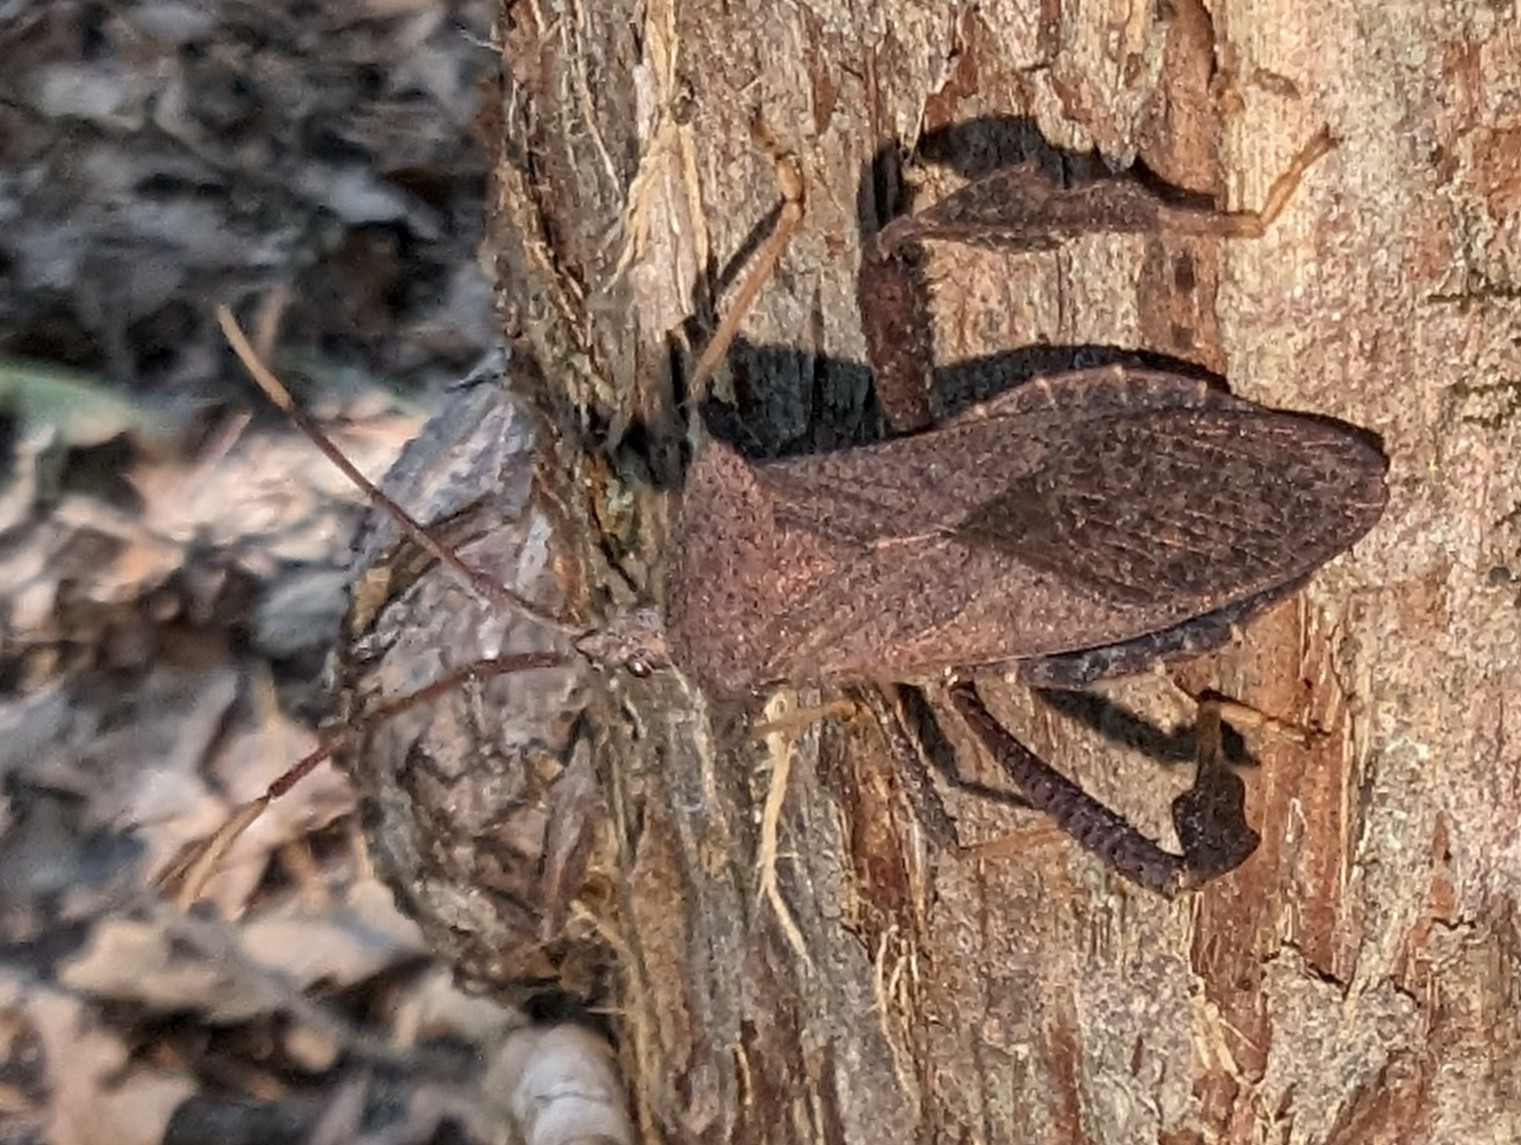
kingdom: Animalia
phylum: Arthropoda
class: Insecta
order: Hemiptera
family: Coreidae
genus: Acanthocephala
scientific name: Acanthocephala terminalis
